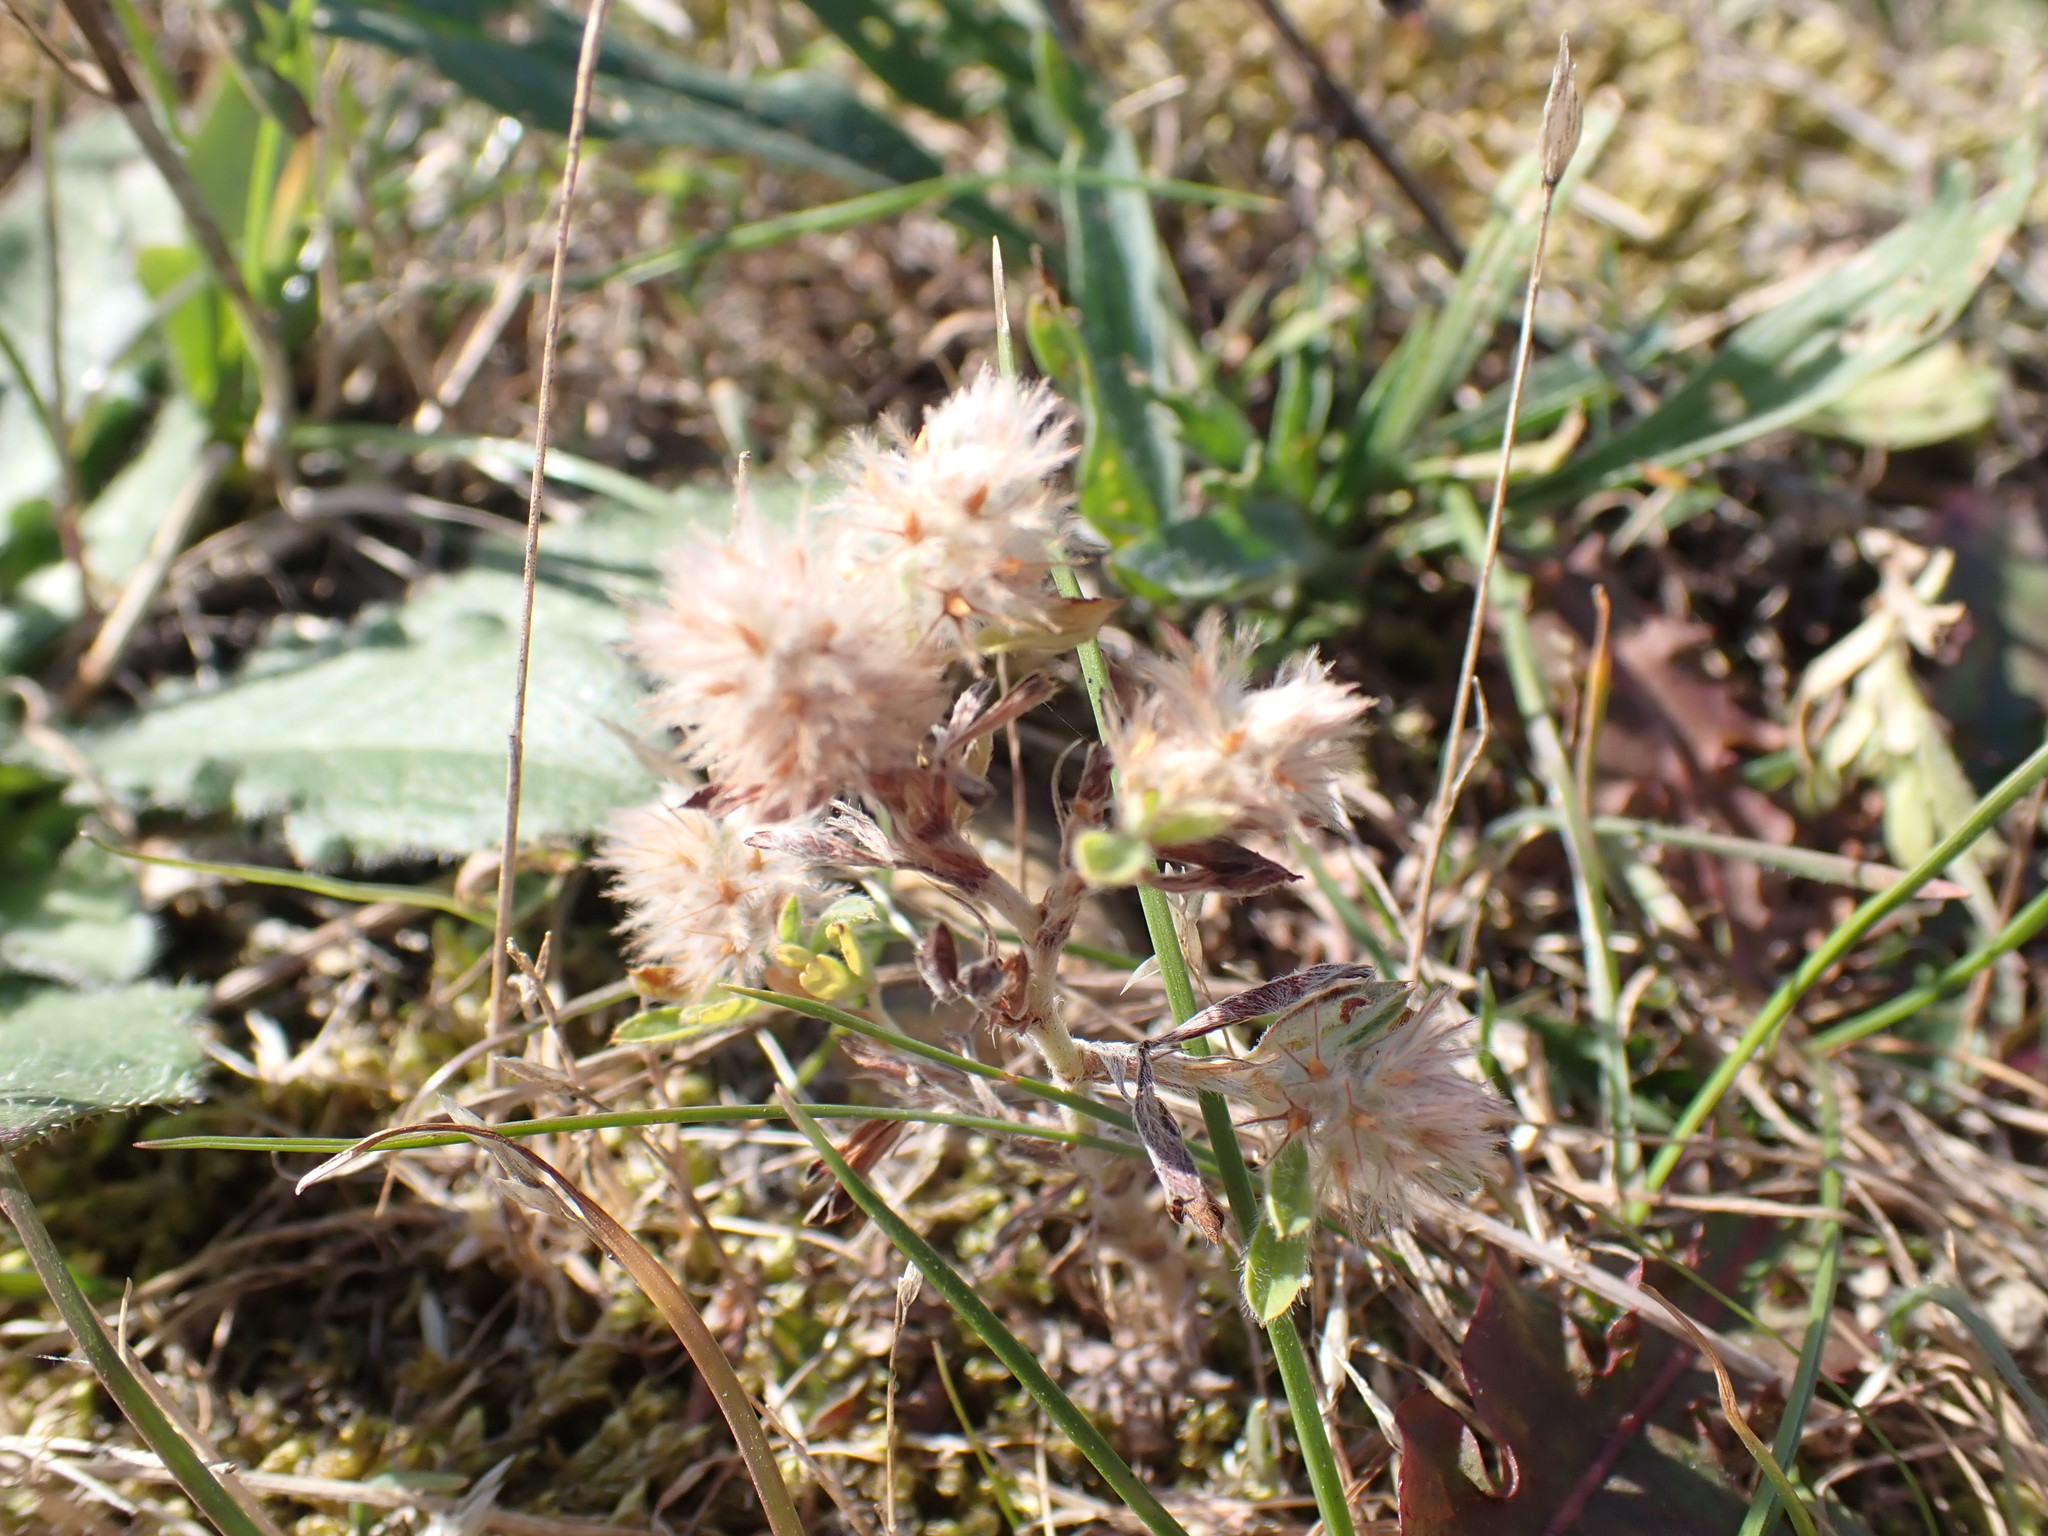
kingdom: Plantae
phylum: Tracheophyta
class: Magnoliopsida
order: Fabales
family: Fabaceae
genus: Trifolium
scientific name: Trifolium arvense
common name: Hare's-foot clover
